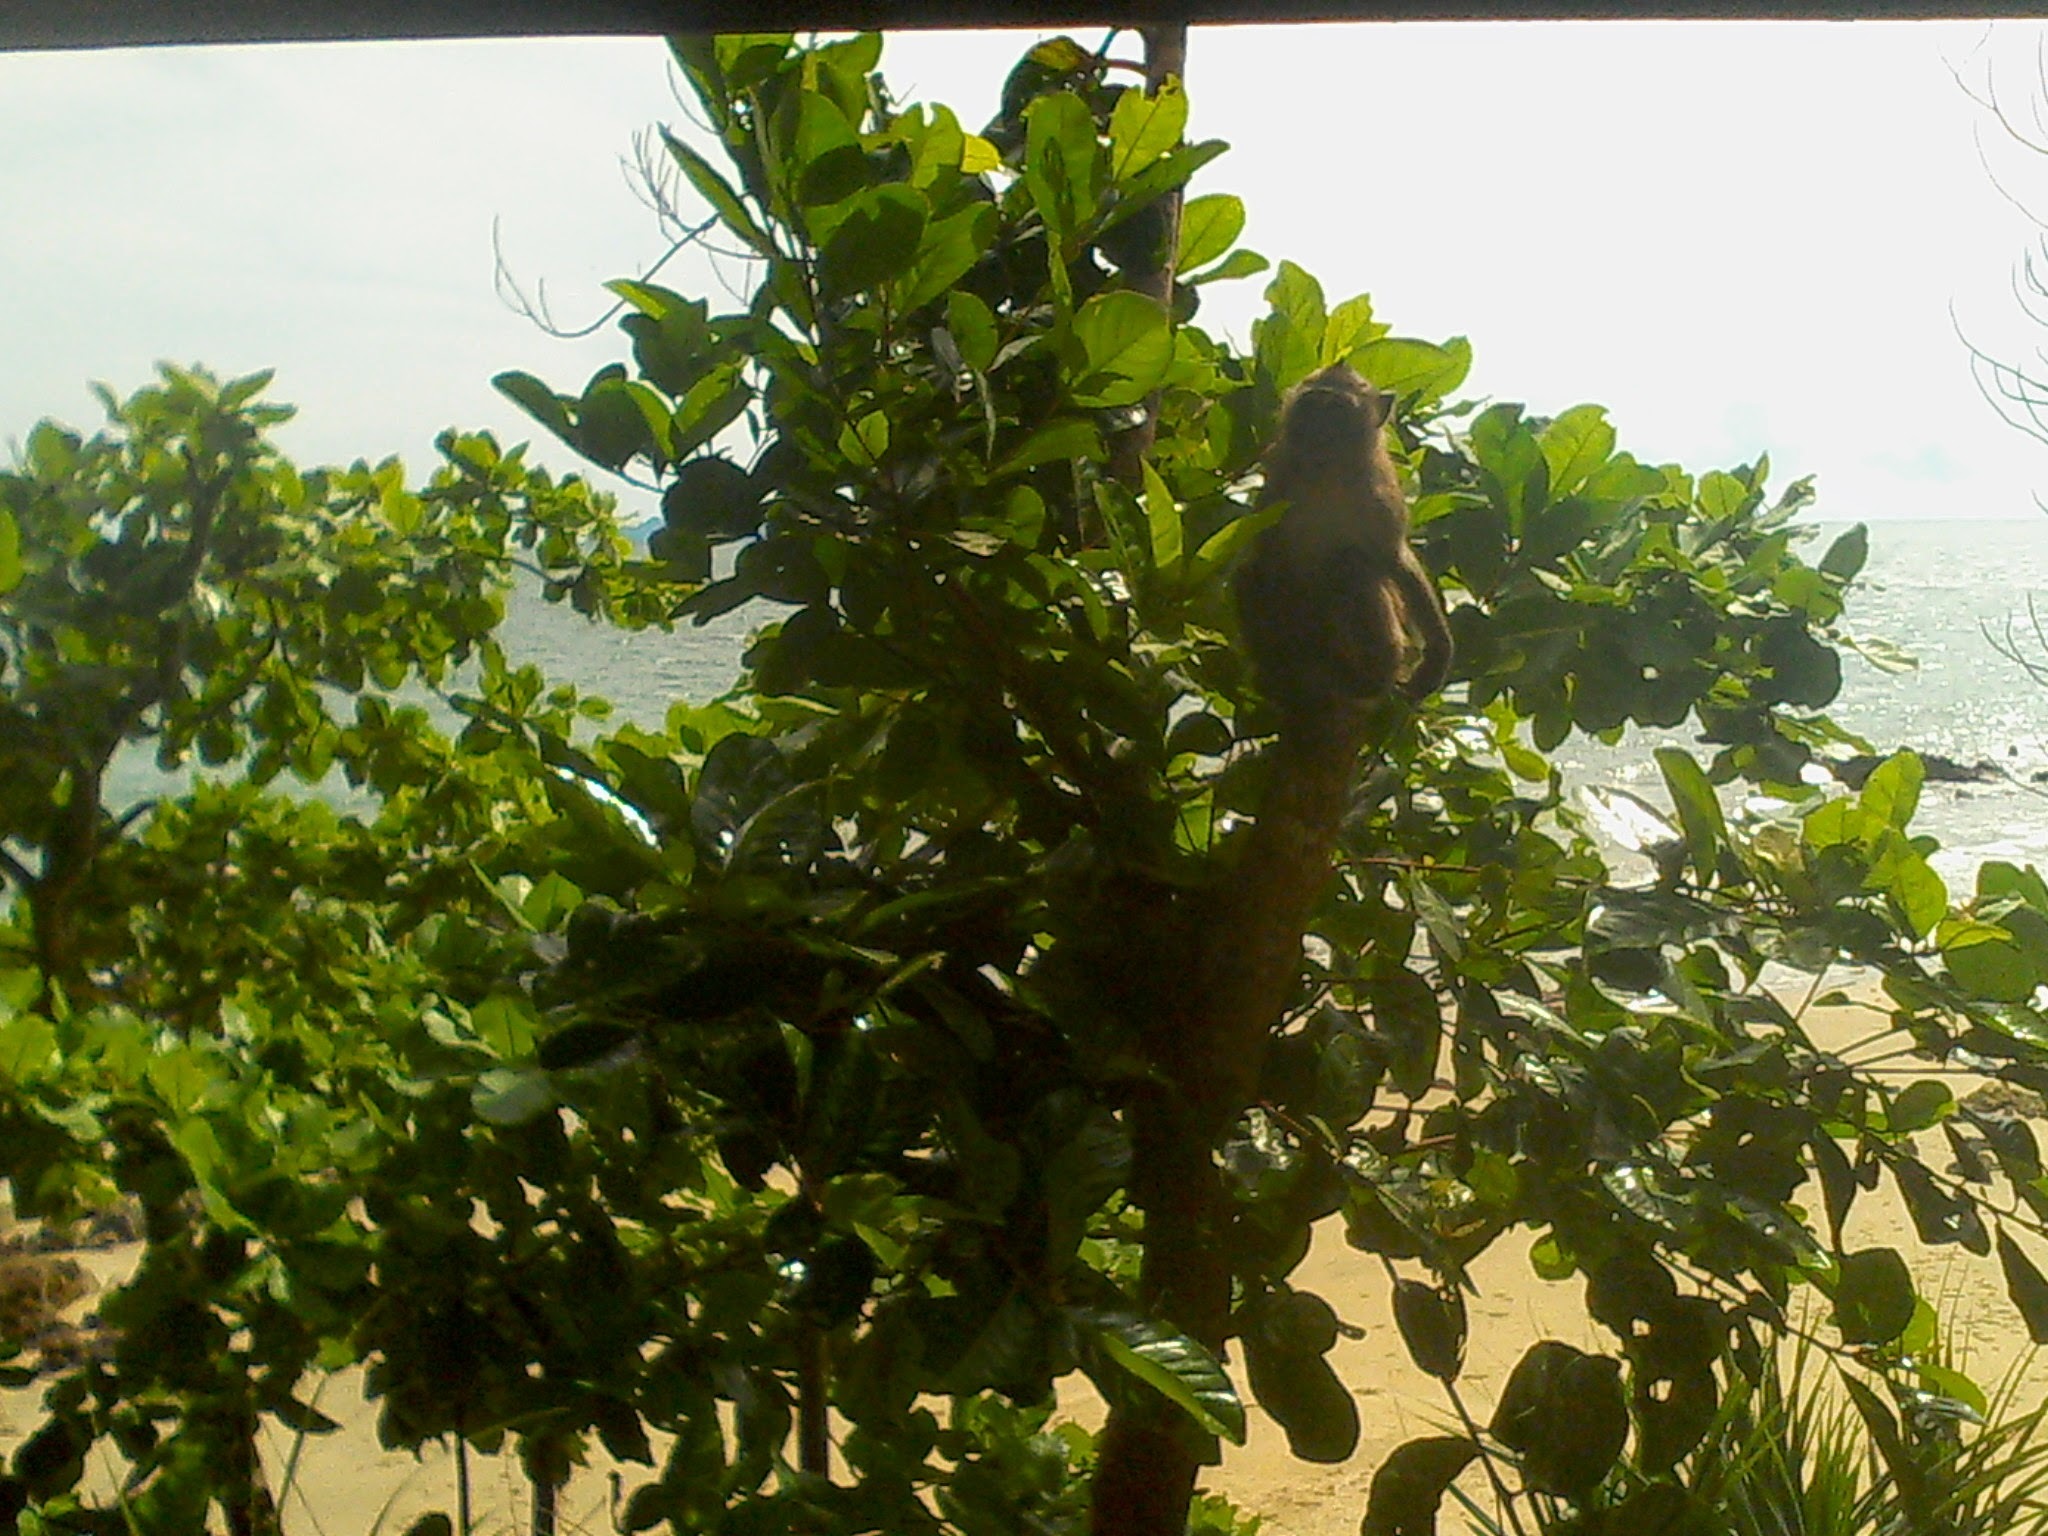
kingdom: Animalia
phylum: Chordata
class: Mammalia
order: Primates
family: Cercopithecidae
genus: Macaca
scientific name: Macaca fascicularis
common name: Crab-eating macaque
